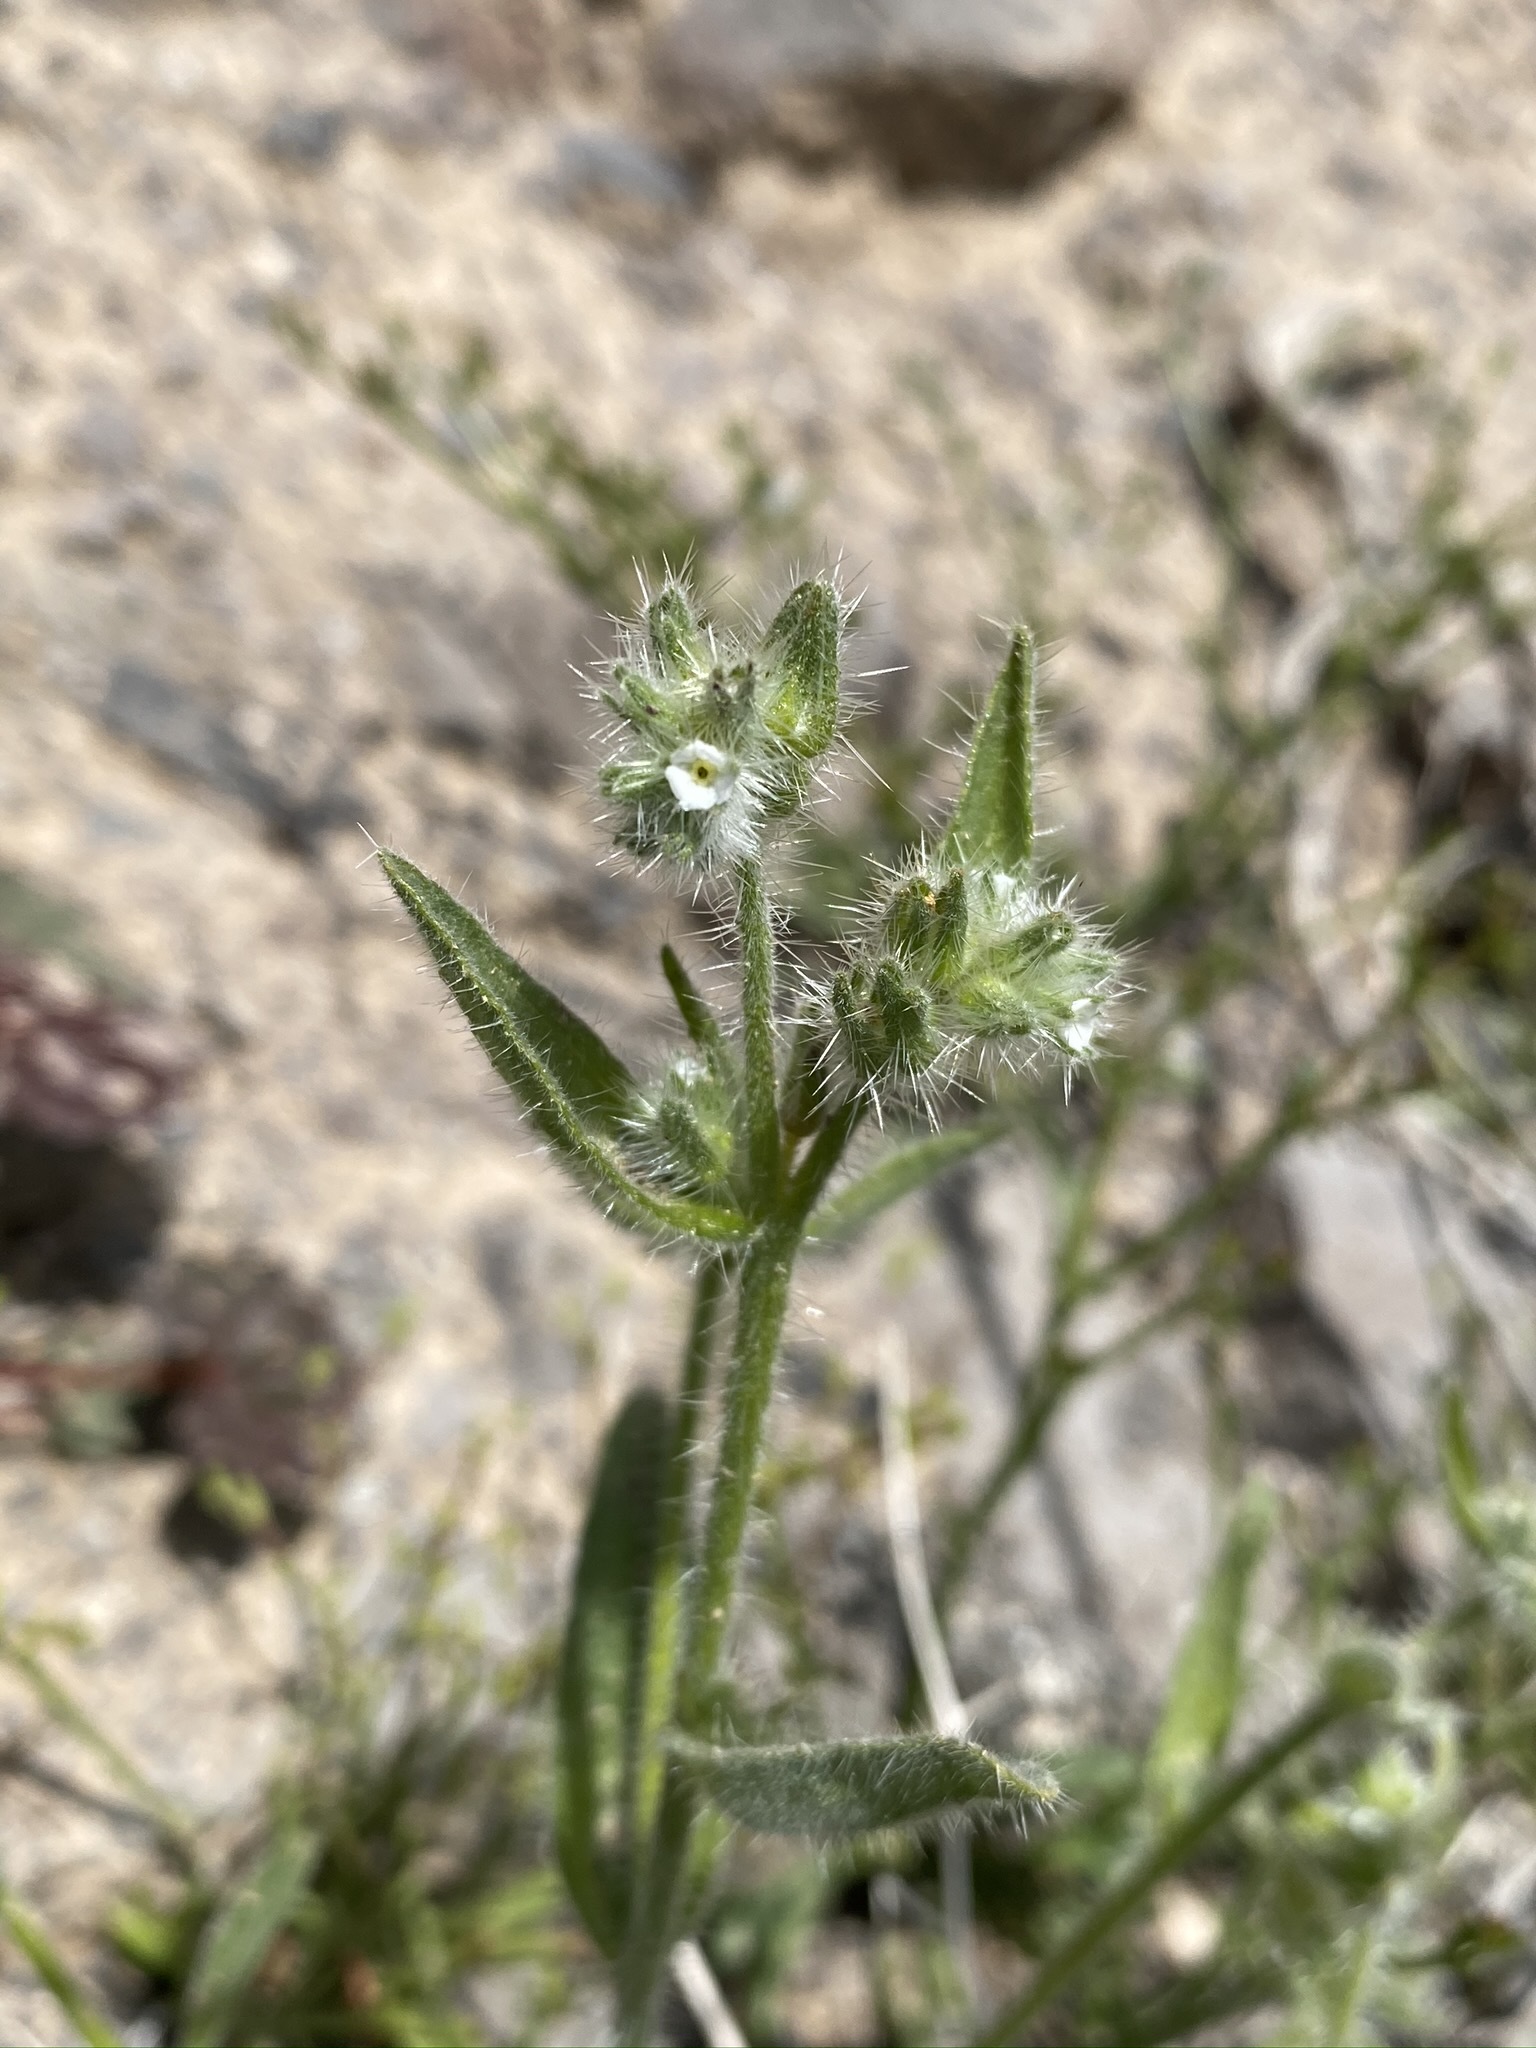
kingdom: Plantae
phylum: Tracheophyta
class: Magnoliopsida
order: Boraginales
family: Boraginaceae
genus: Simpsonanthus
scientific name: Simpsonanthus jonesii
